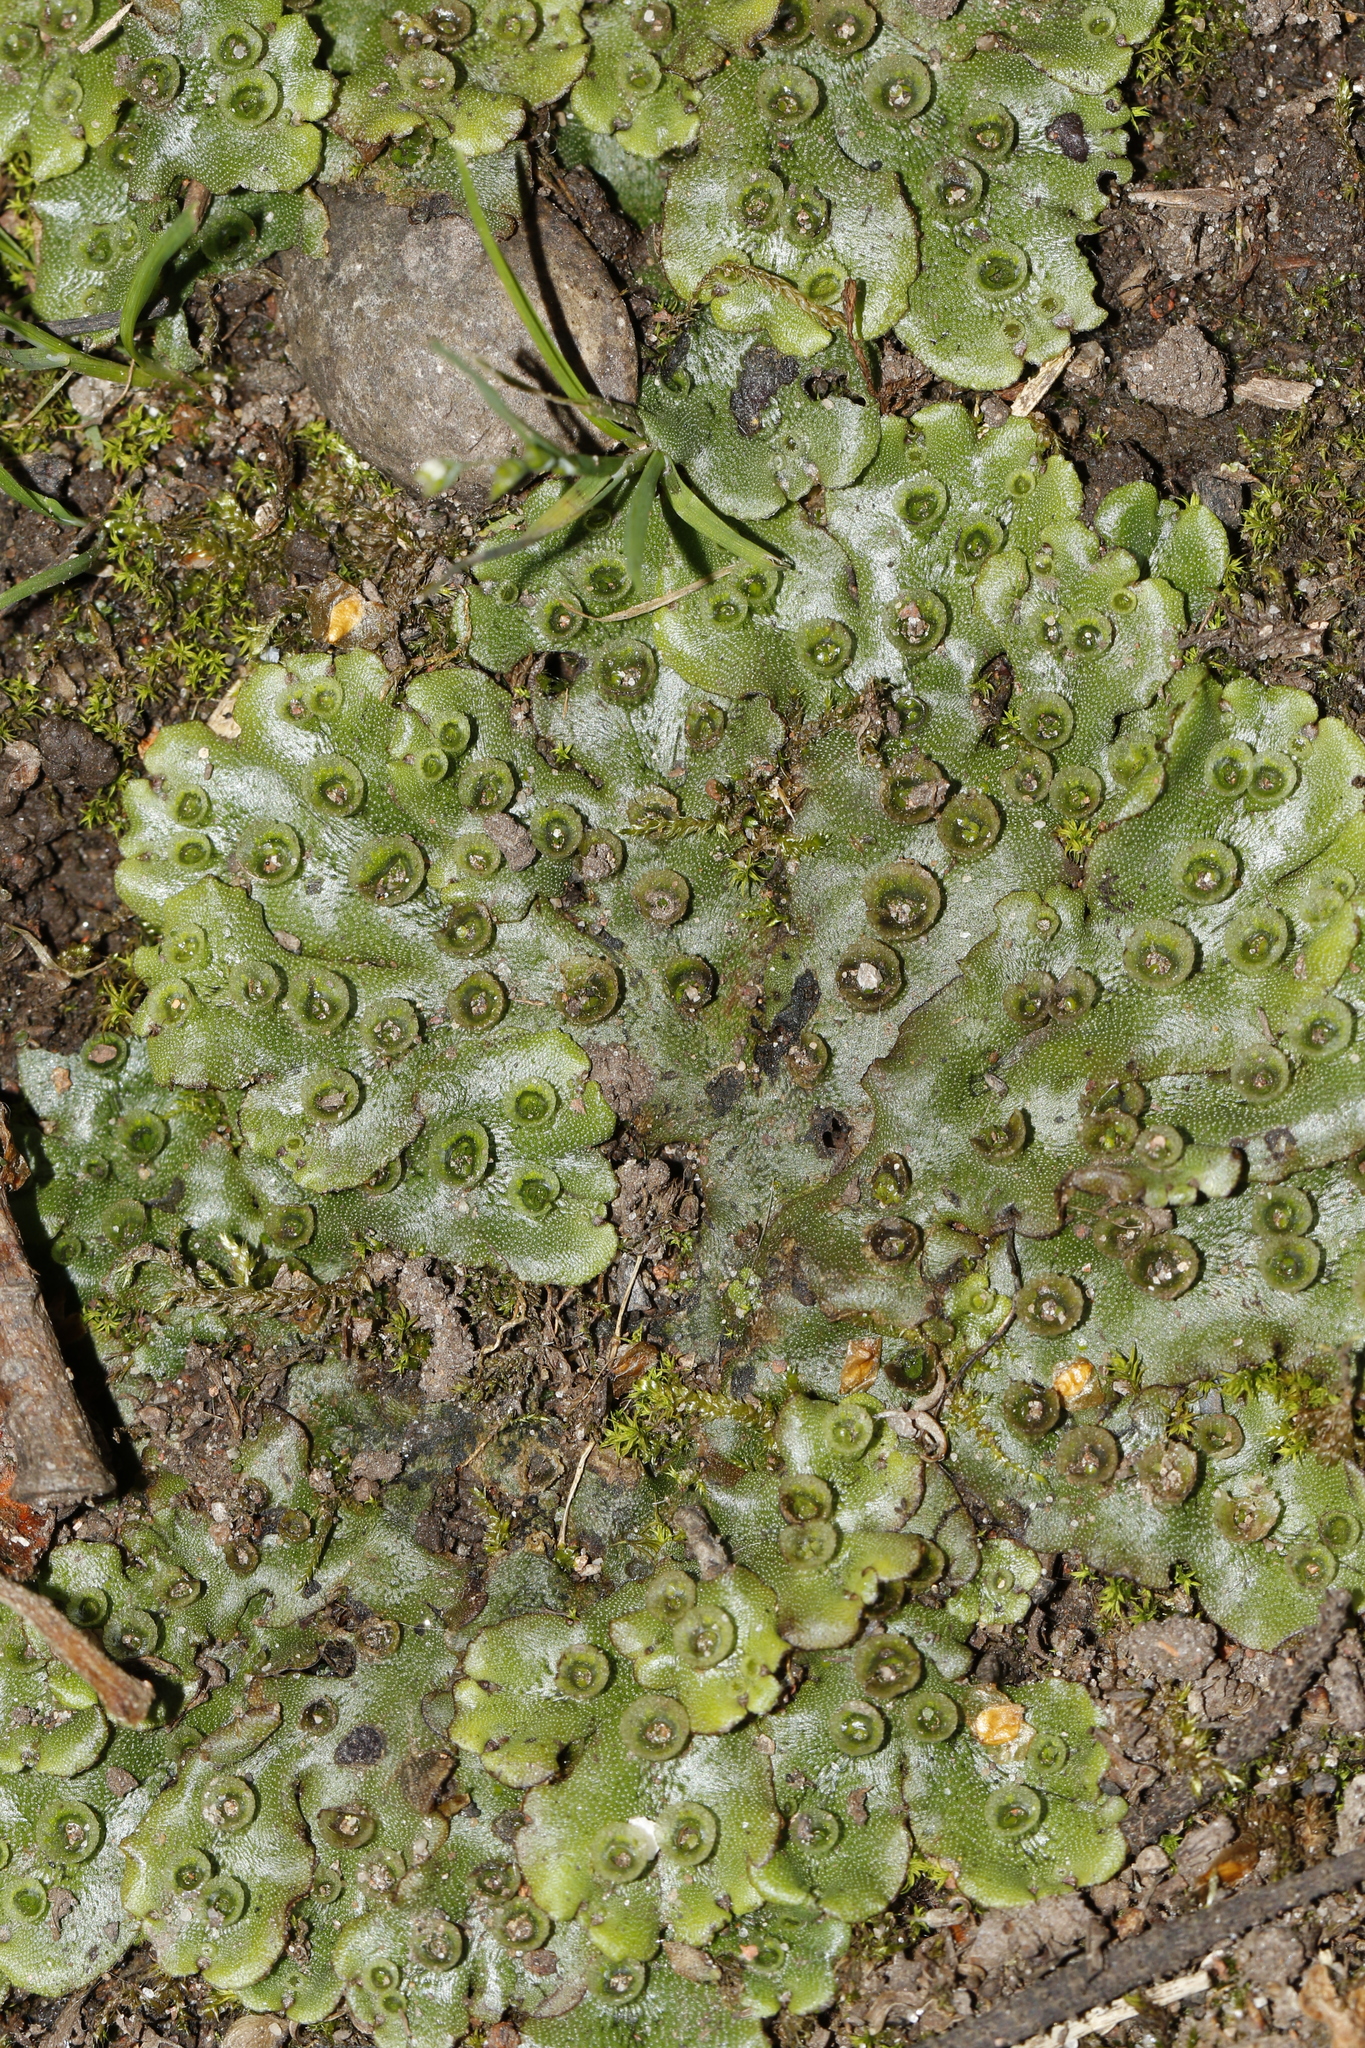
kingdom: Plantae
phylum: Marchantiophyta
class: Marchantiopsida
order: Marchantiales
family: Marchantiaceae
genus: Marchantia
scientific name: Marchantia polymorpha
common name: Common liverwort
